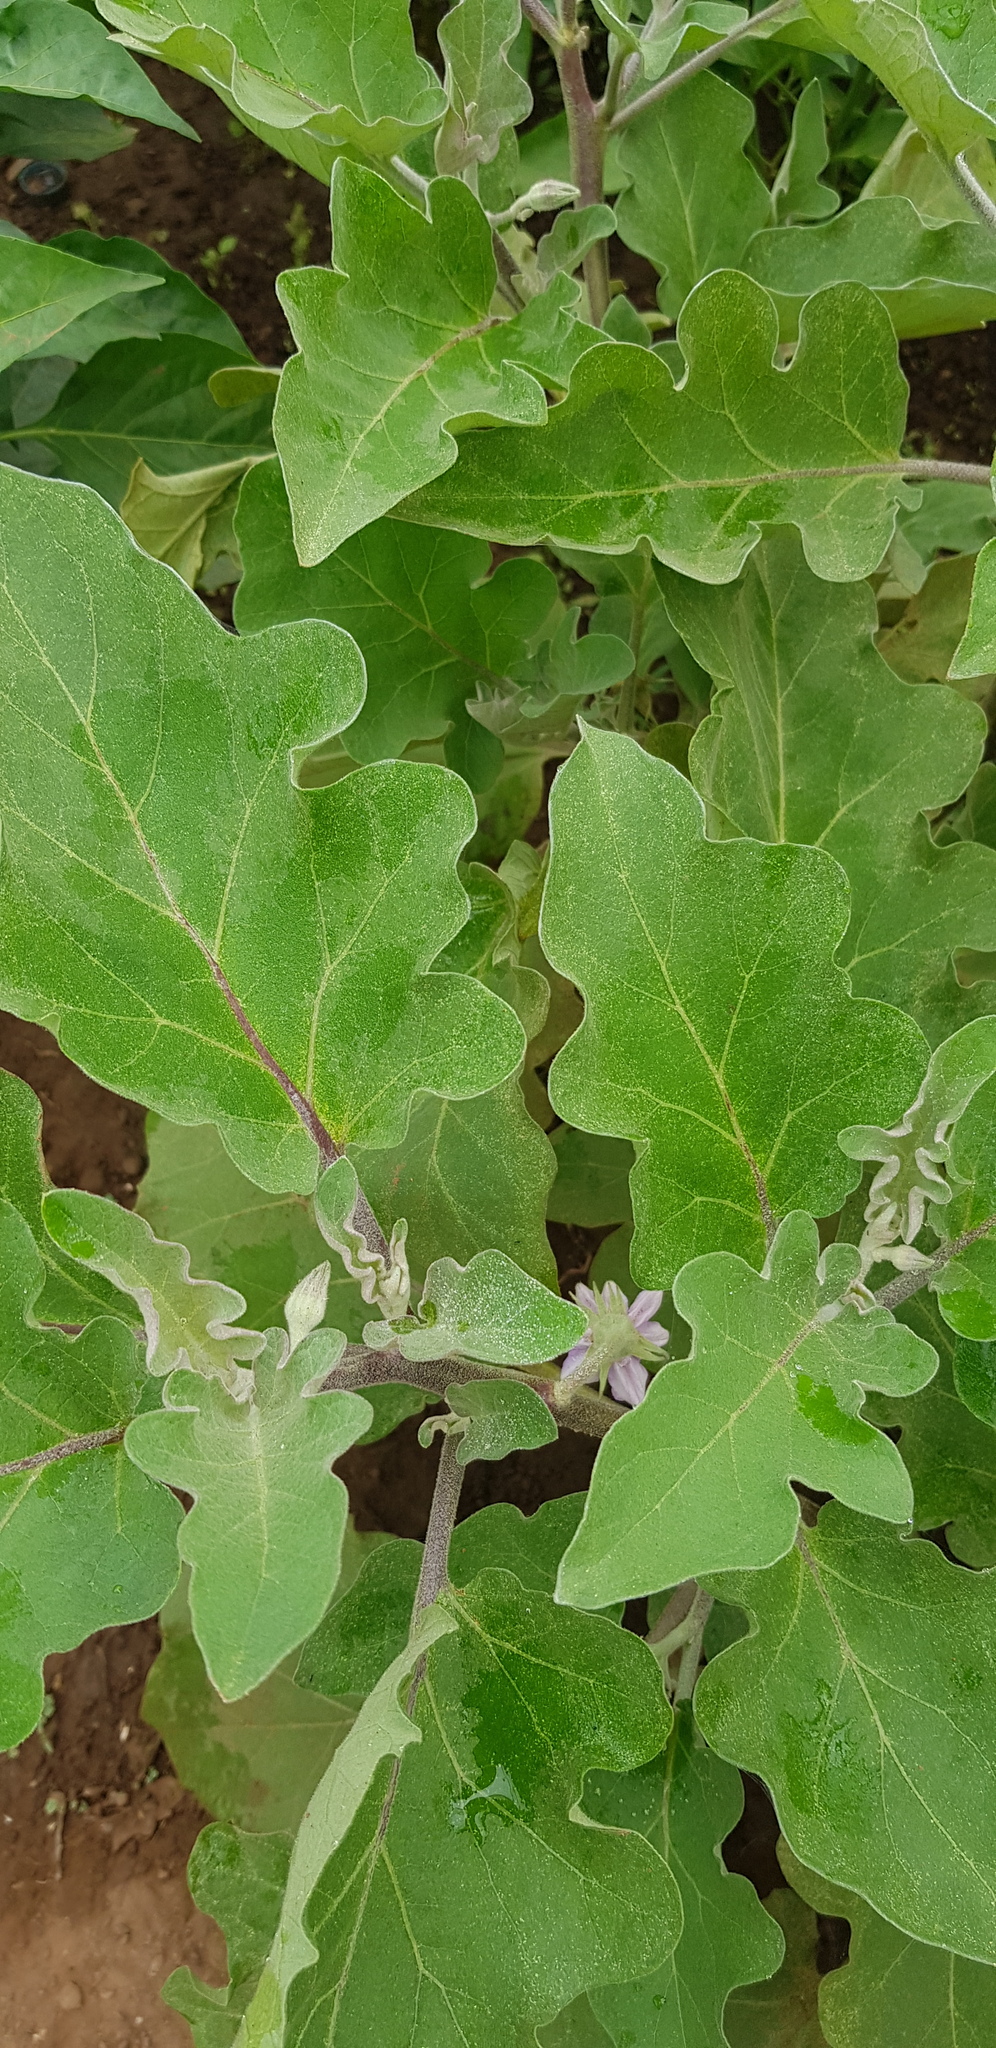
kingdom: Plantae
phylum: Tracheophyta
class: Magnoliopsida
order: Solanales
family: Solanaceae
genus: Solanum
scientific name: Solanum melongena
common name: Eggplant
